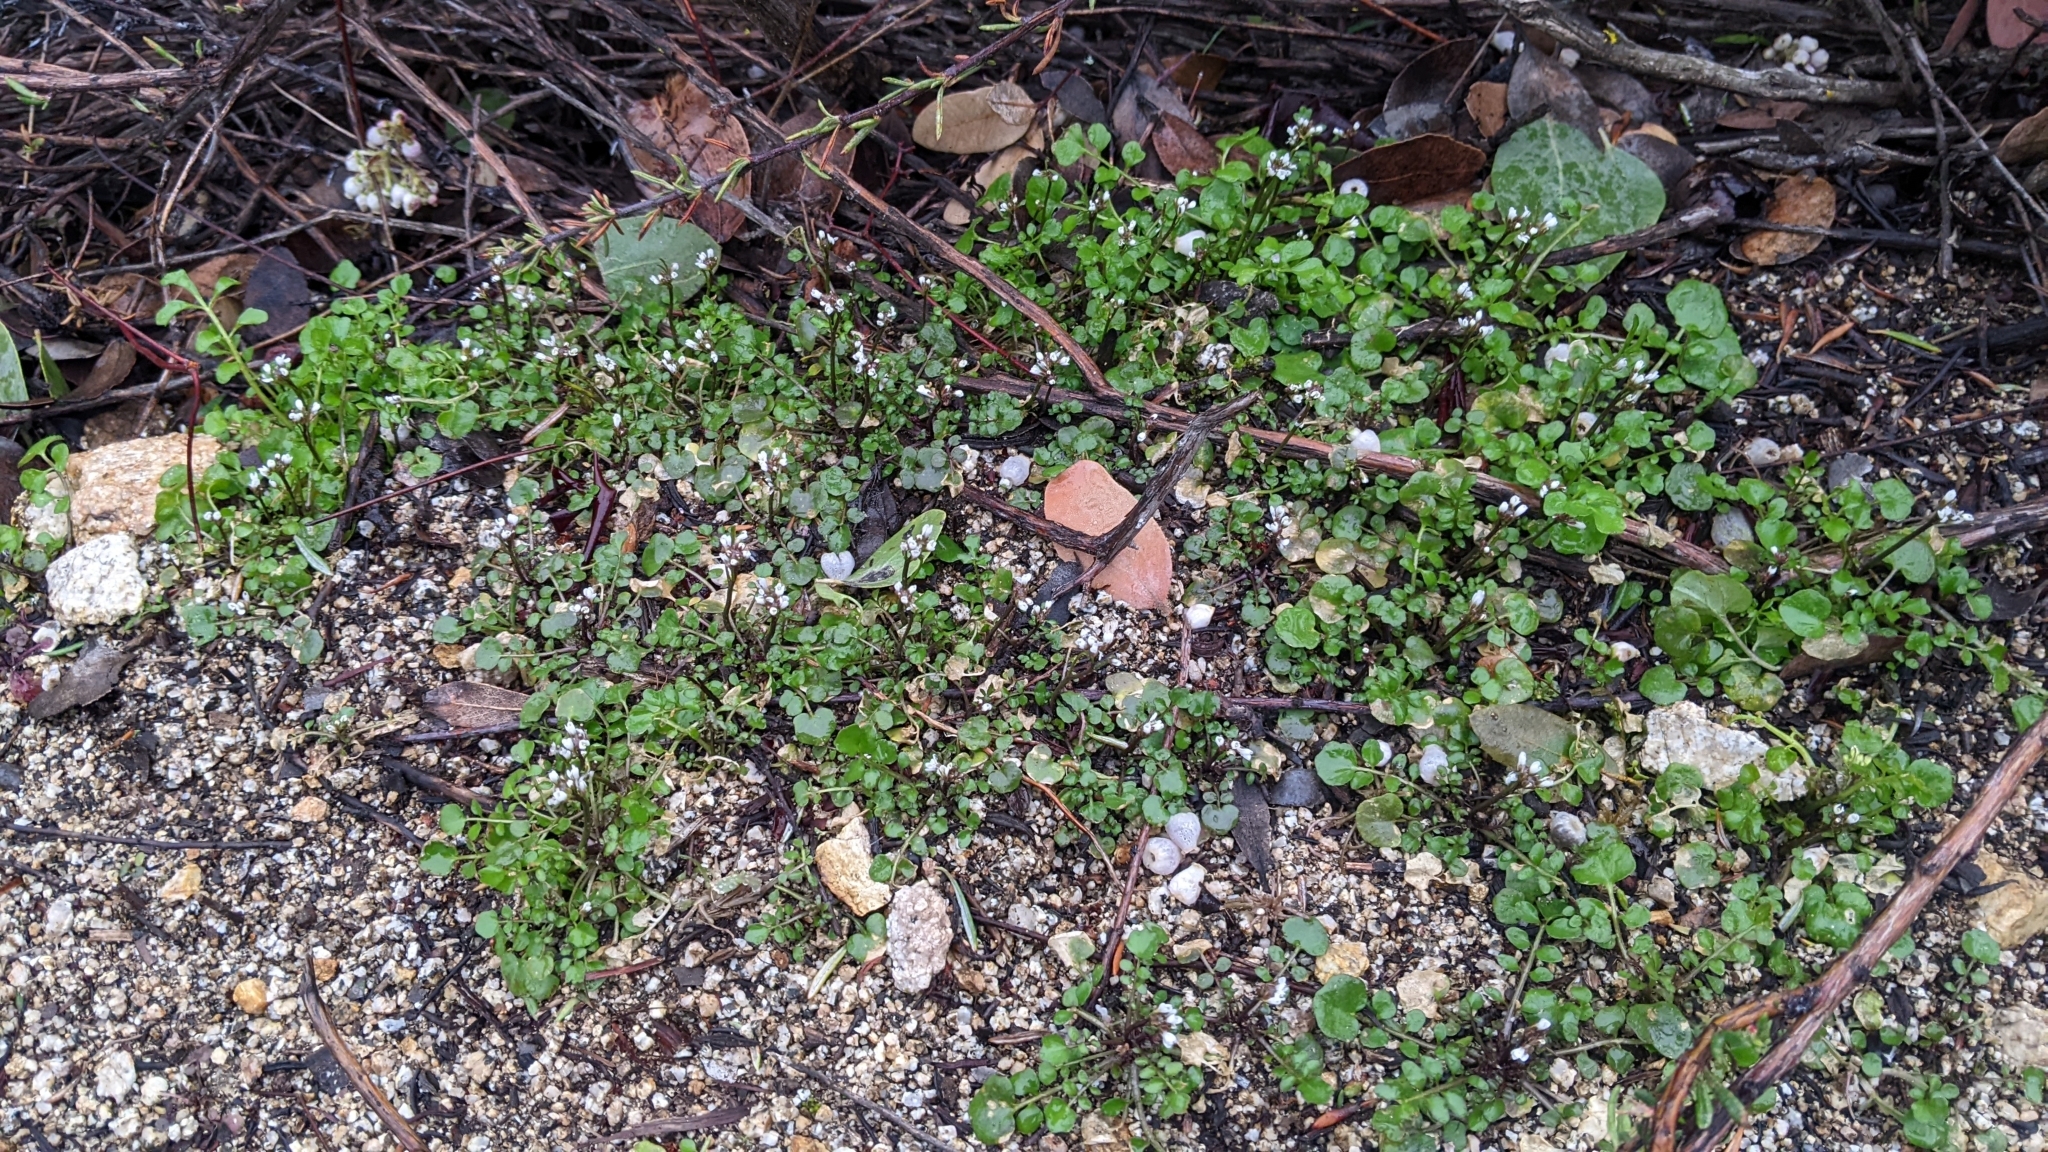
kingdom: Plantae
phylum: Tracheophyta
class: Magnoliopsida
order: Brassicales
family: Brassicaceae
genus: Cardamine
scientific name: Cardamine hirsuta
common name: Hairy bittercress
